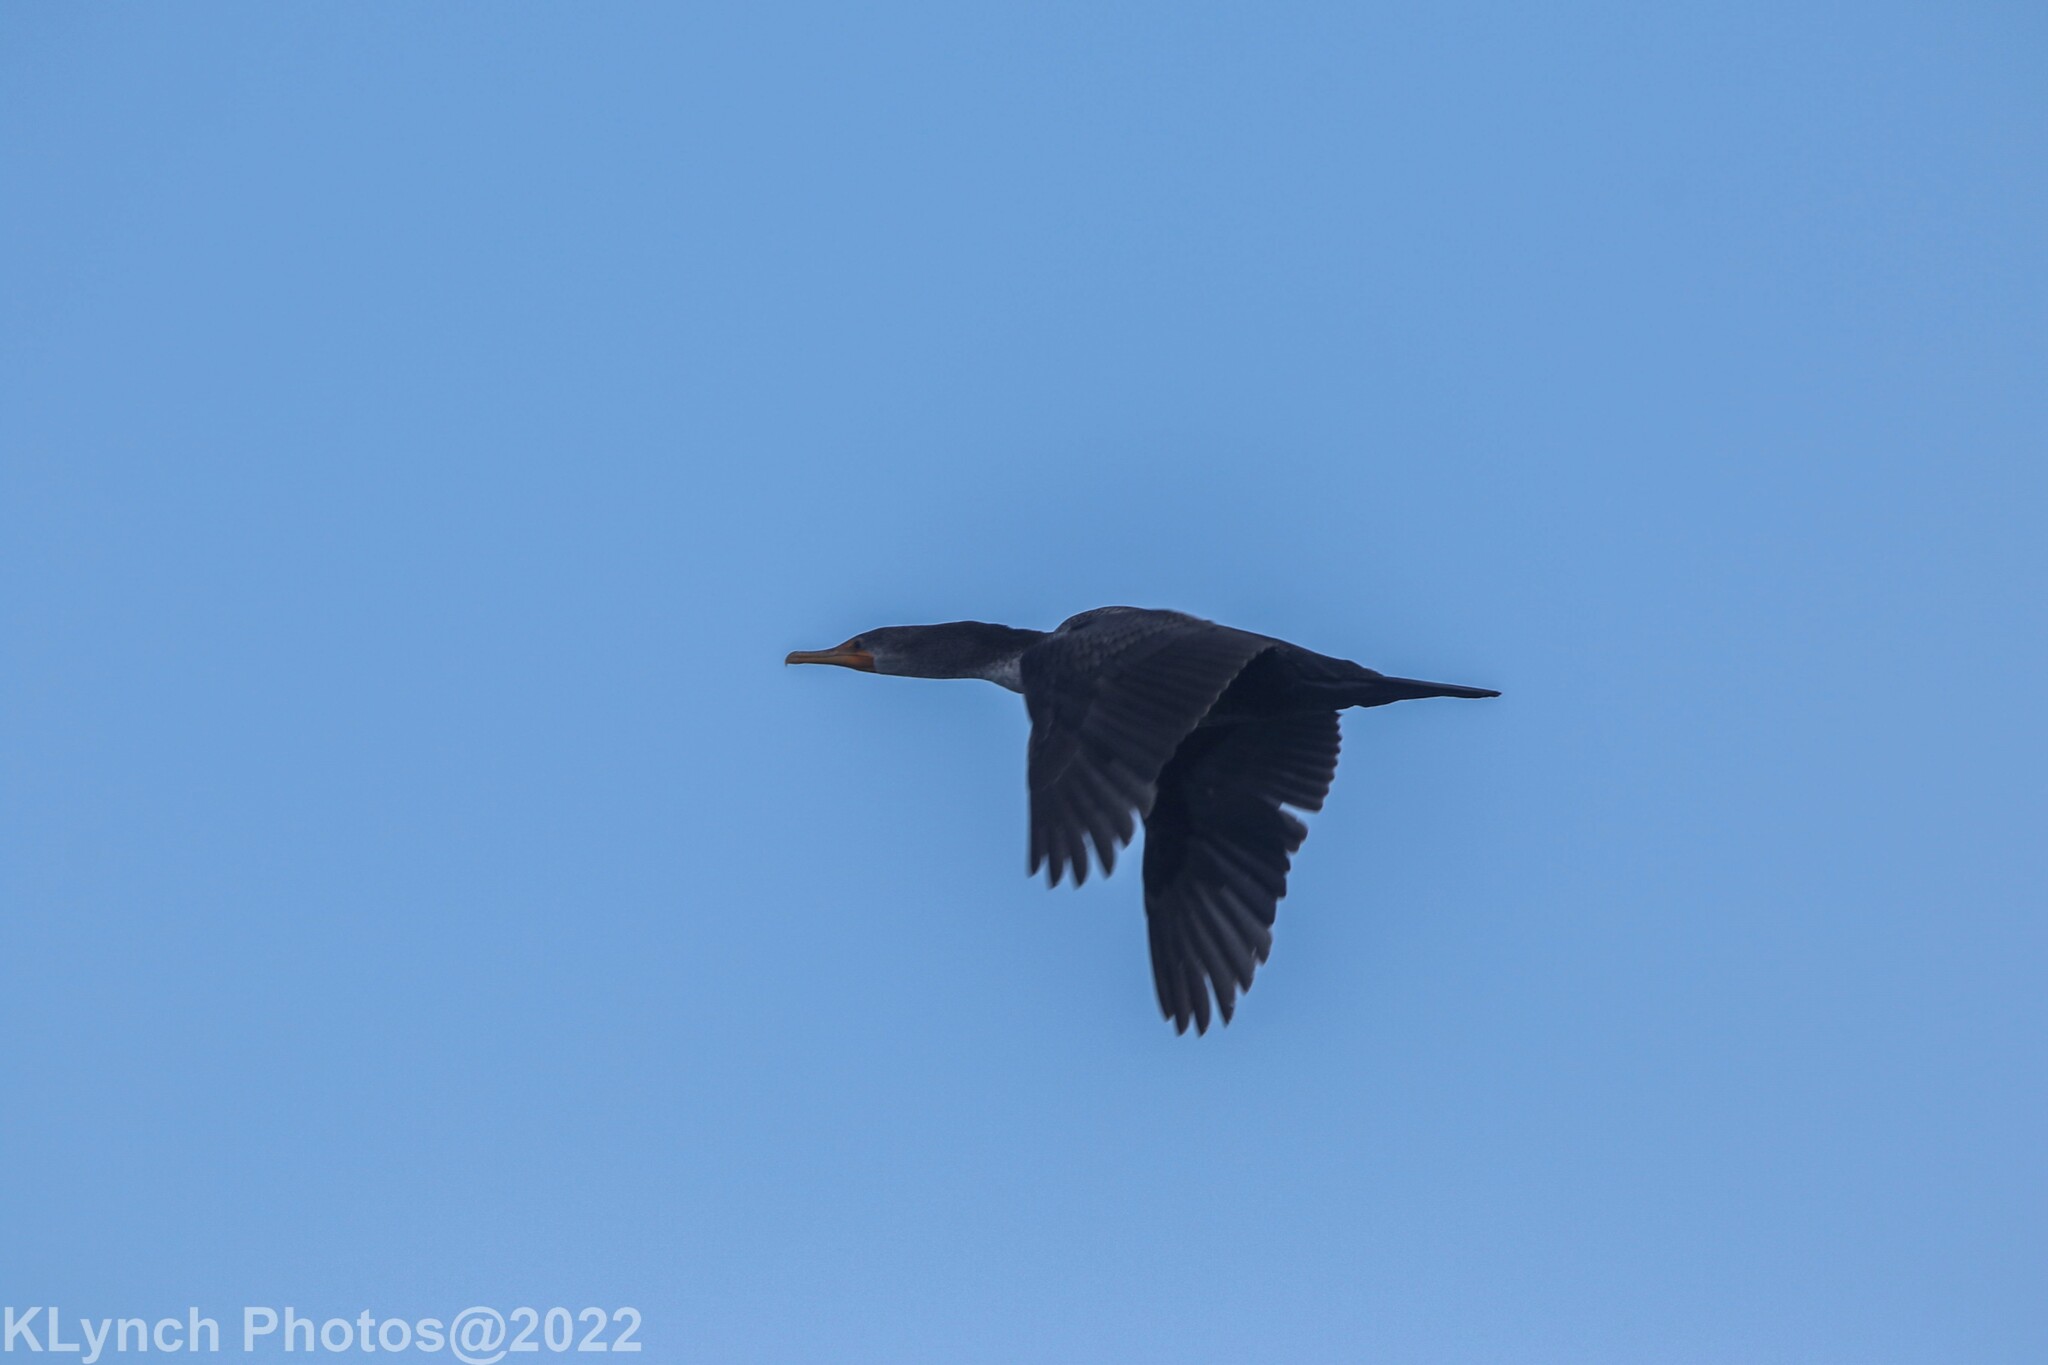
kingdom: Animalia
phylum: Chordata
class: Aves
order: Suliformes
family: Phalacrocoracidae
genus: Phalacrocorax
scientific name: Phalacrocorax auritus
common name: Double-crested cormorant
